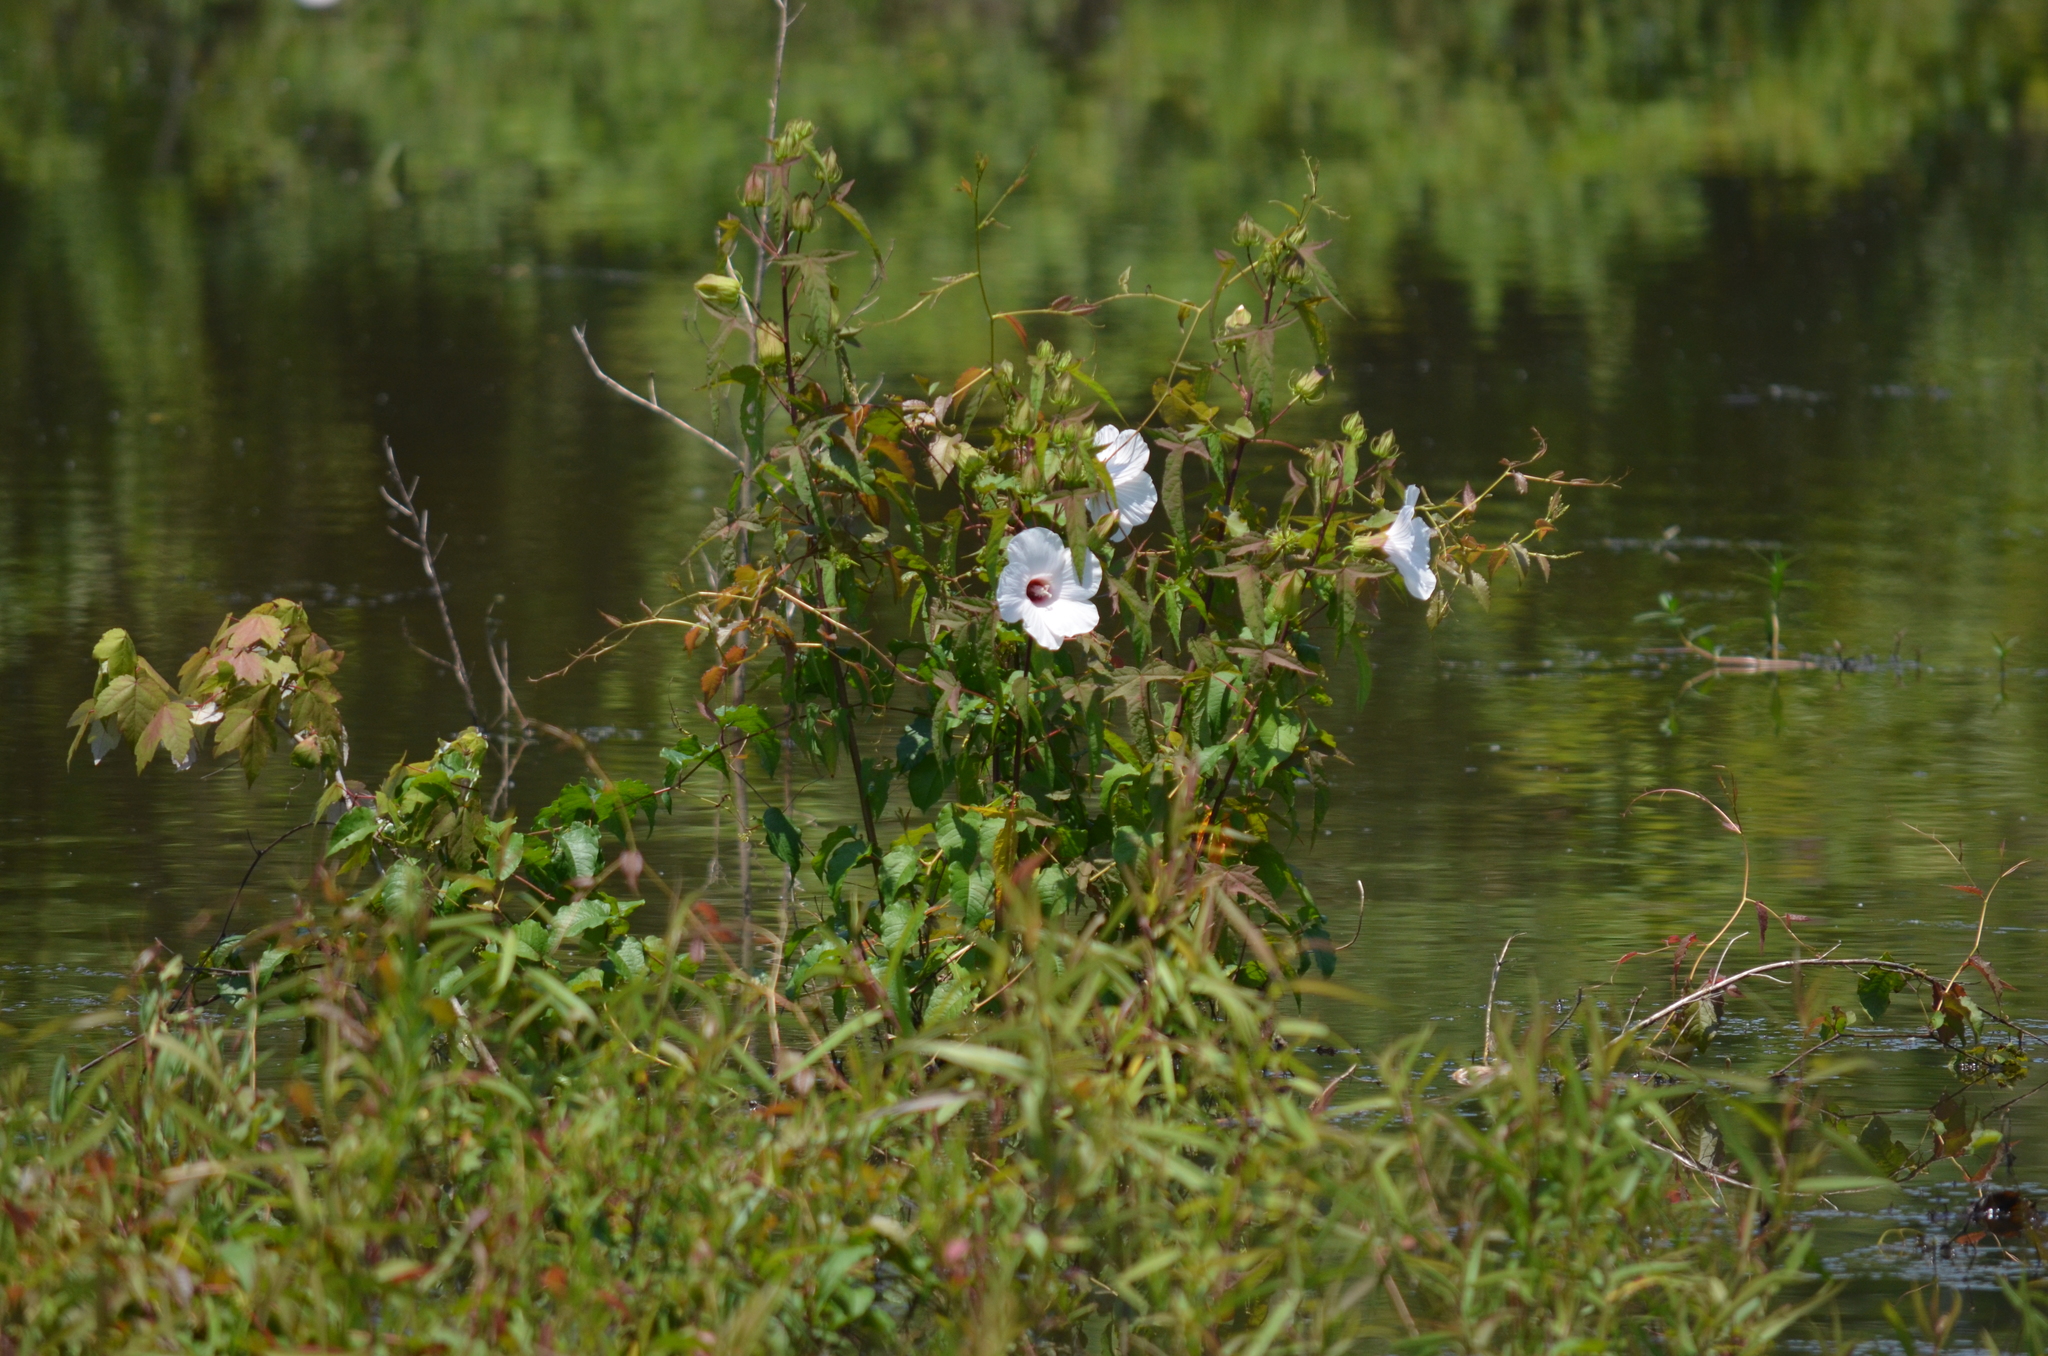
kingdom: Plantae
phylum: Tracheophyta
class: Magnoliopsida
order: Malvales
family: Malvaceae
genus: Hibiscus
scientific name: Hibiscus laevis
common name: Scarlet rose-mallow
